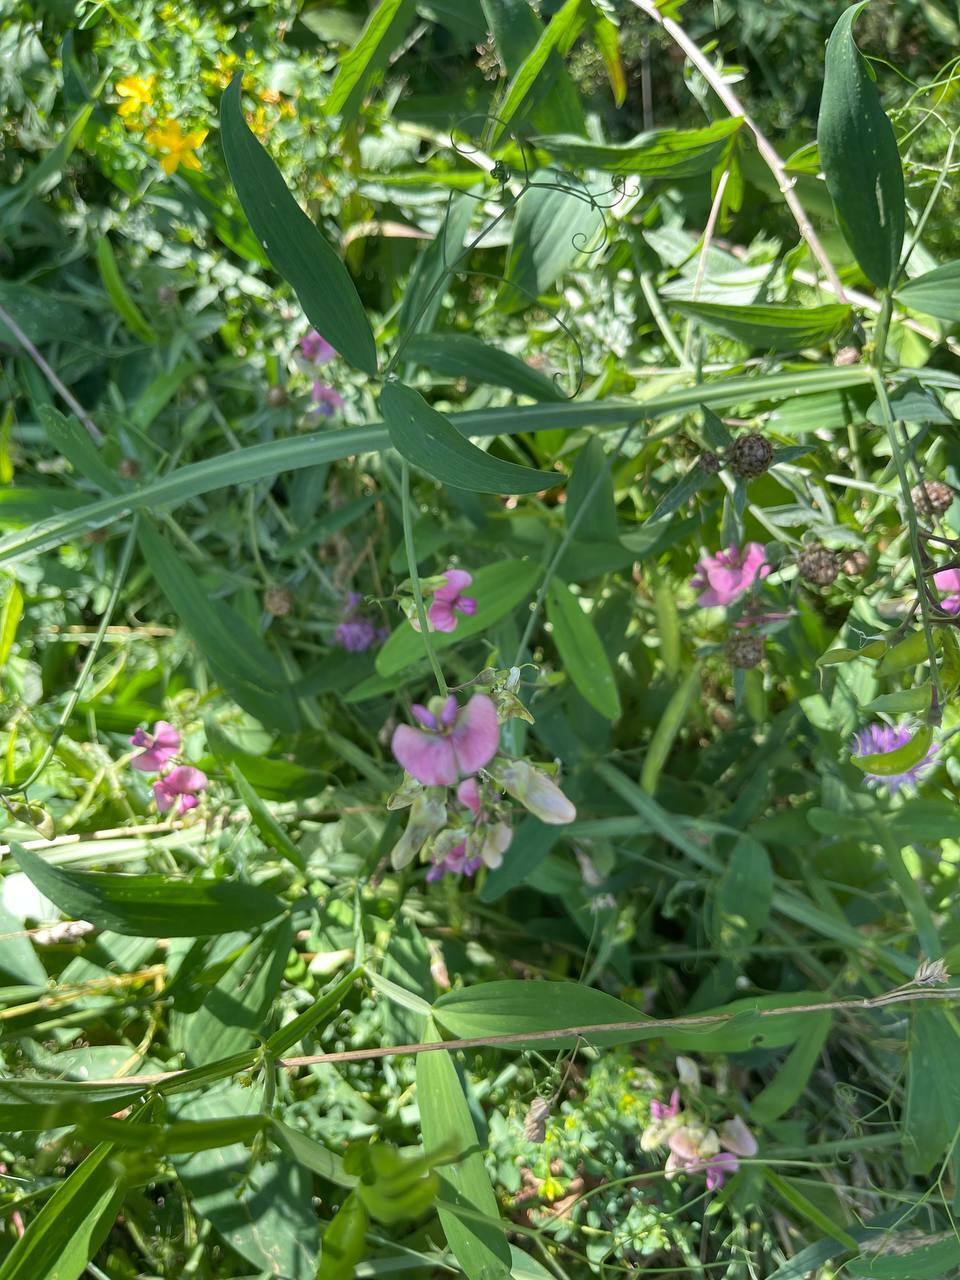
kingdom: Plantae
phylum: Tracheophyta
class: Magnoliopsida
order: Fabales
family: Fabaceae
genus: Lathyrus
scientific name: Lathyrus sylvestris
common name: Flat pea
